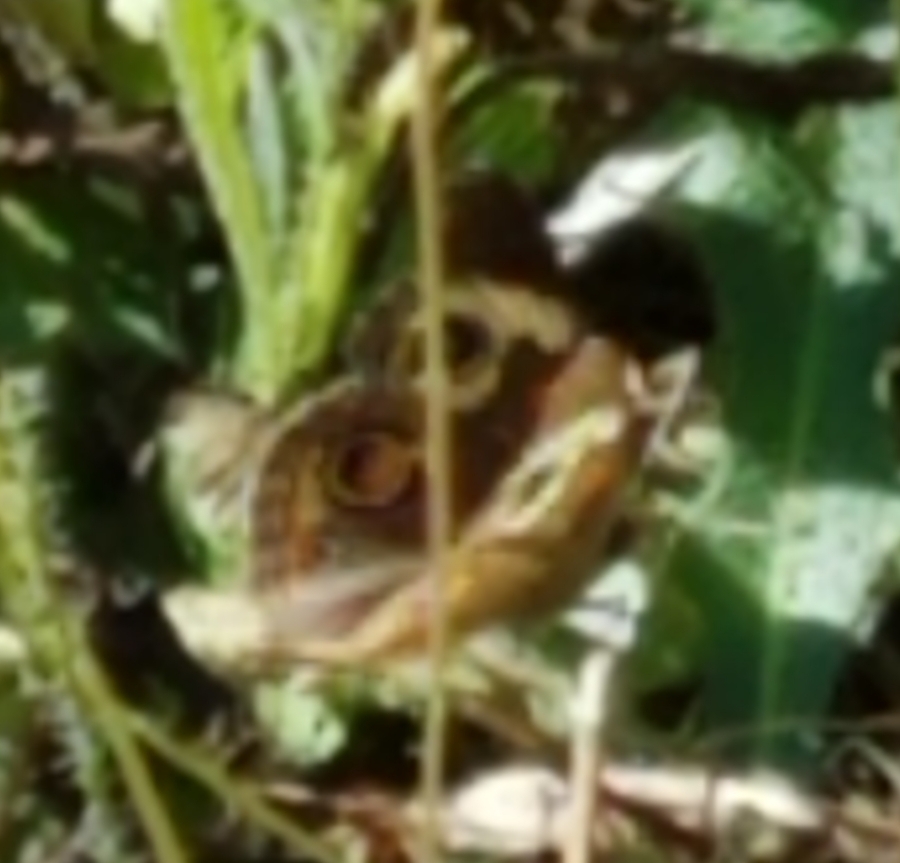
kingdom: Animalia
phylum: Arthropoda
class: Insecta
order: Lepidoptera
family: Nymphalidae
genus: Junonia
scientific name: Junonia grisea
